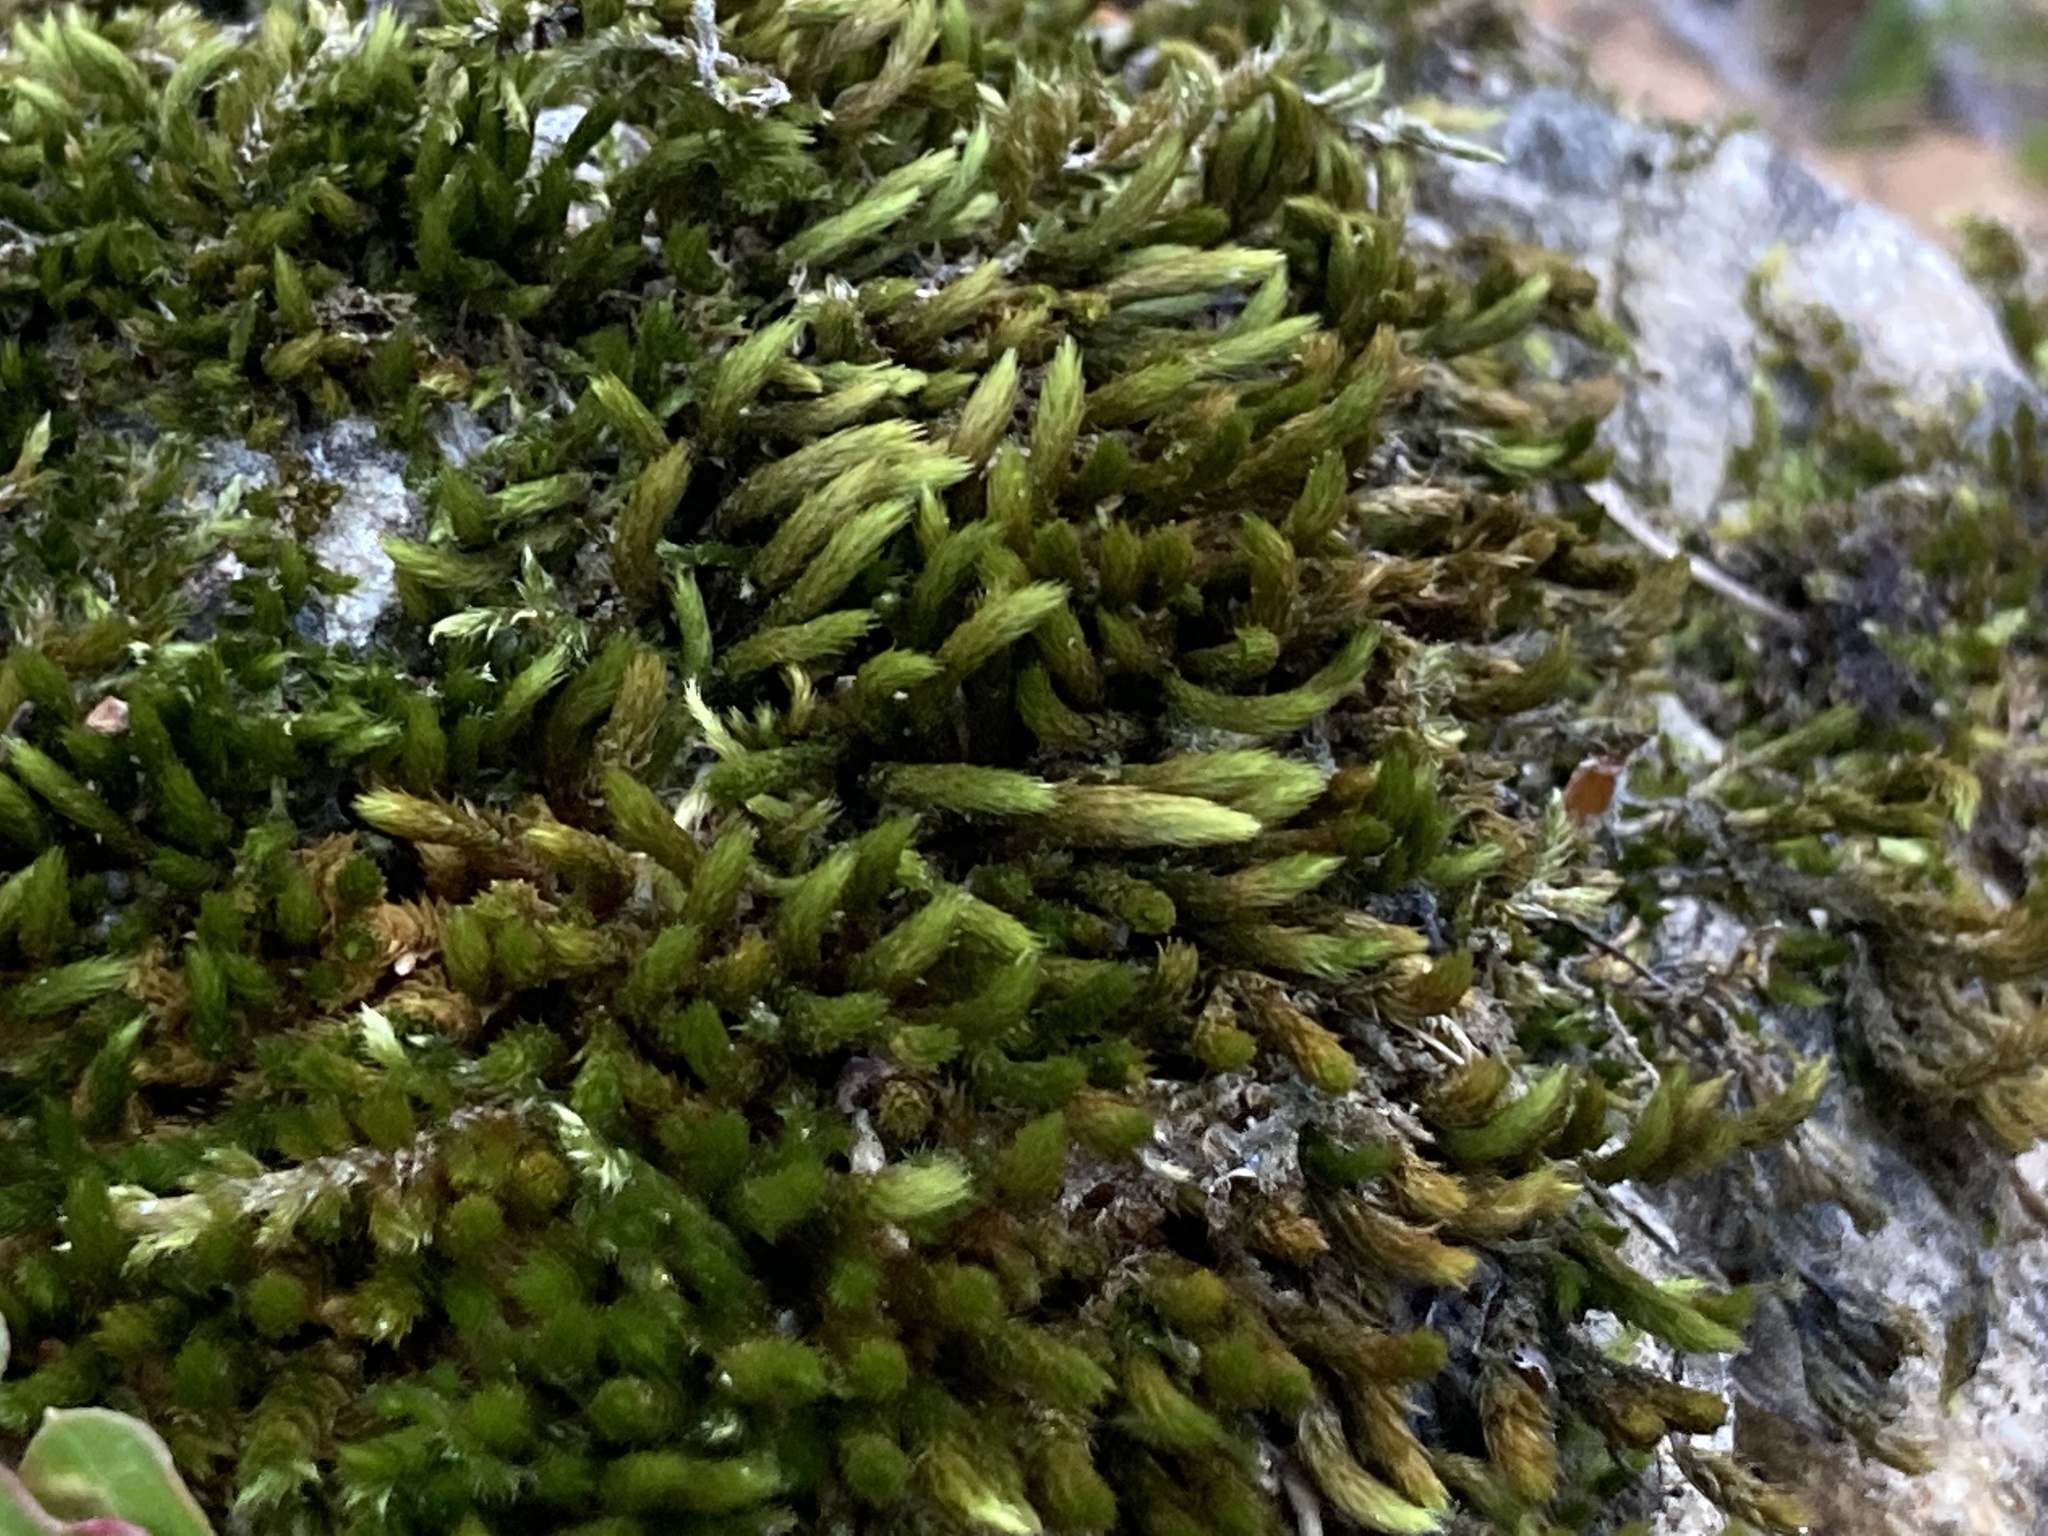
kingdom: Plantae
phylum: Bryophyta
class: Bryopsida
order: Hypnales
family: Leucodontaceae
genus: Leucodon
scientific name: Leucodon sciuroides
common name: Squirrel-tail moss
